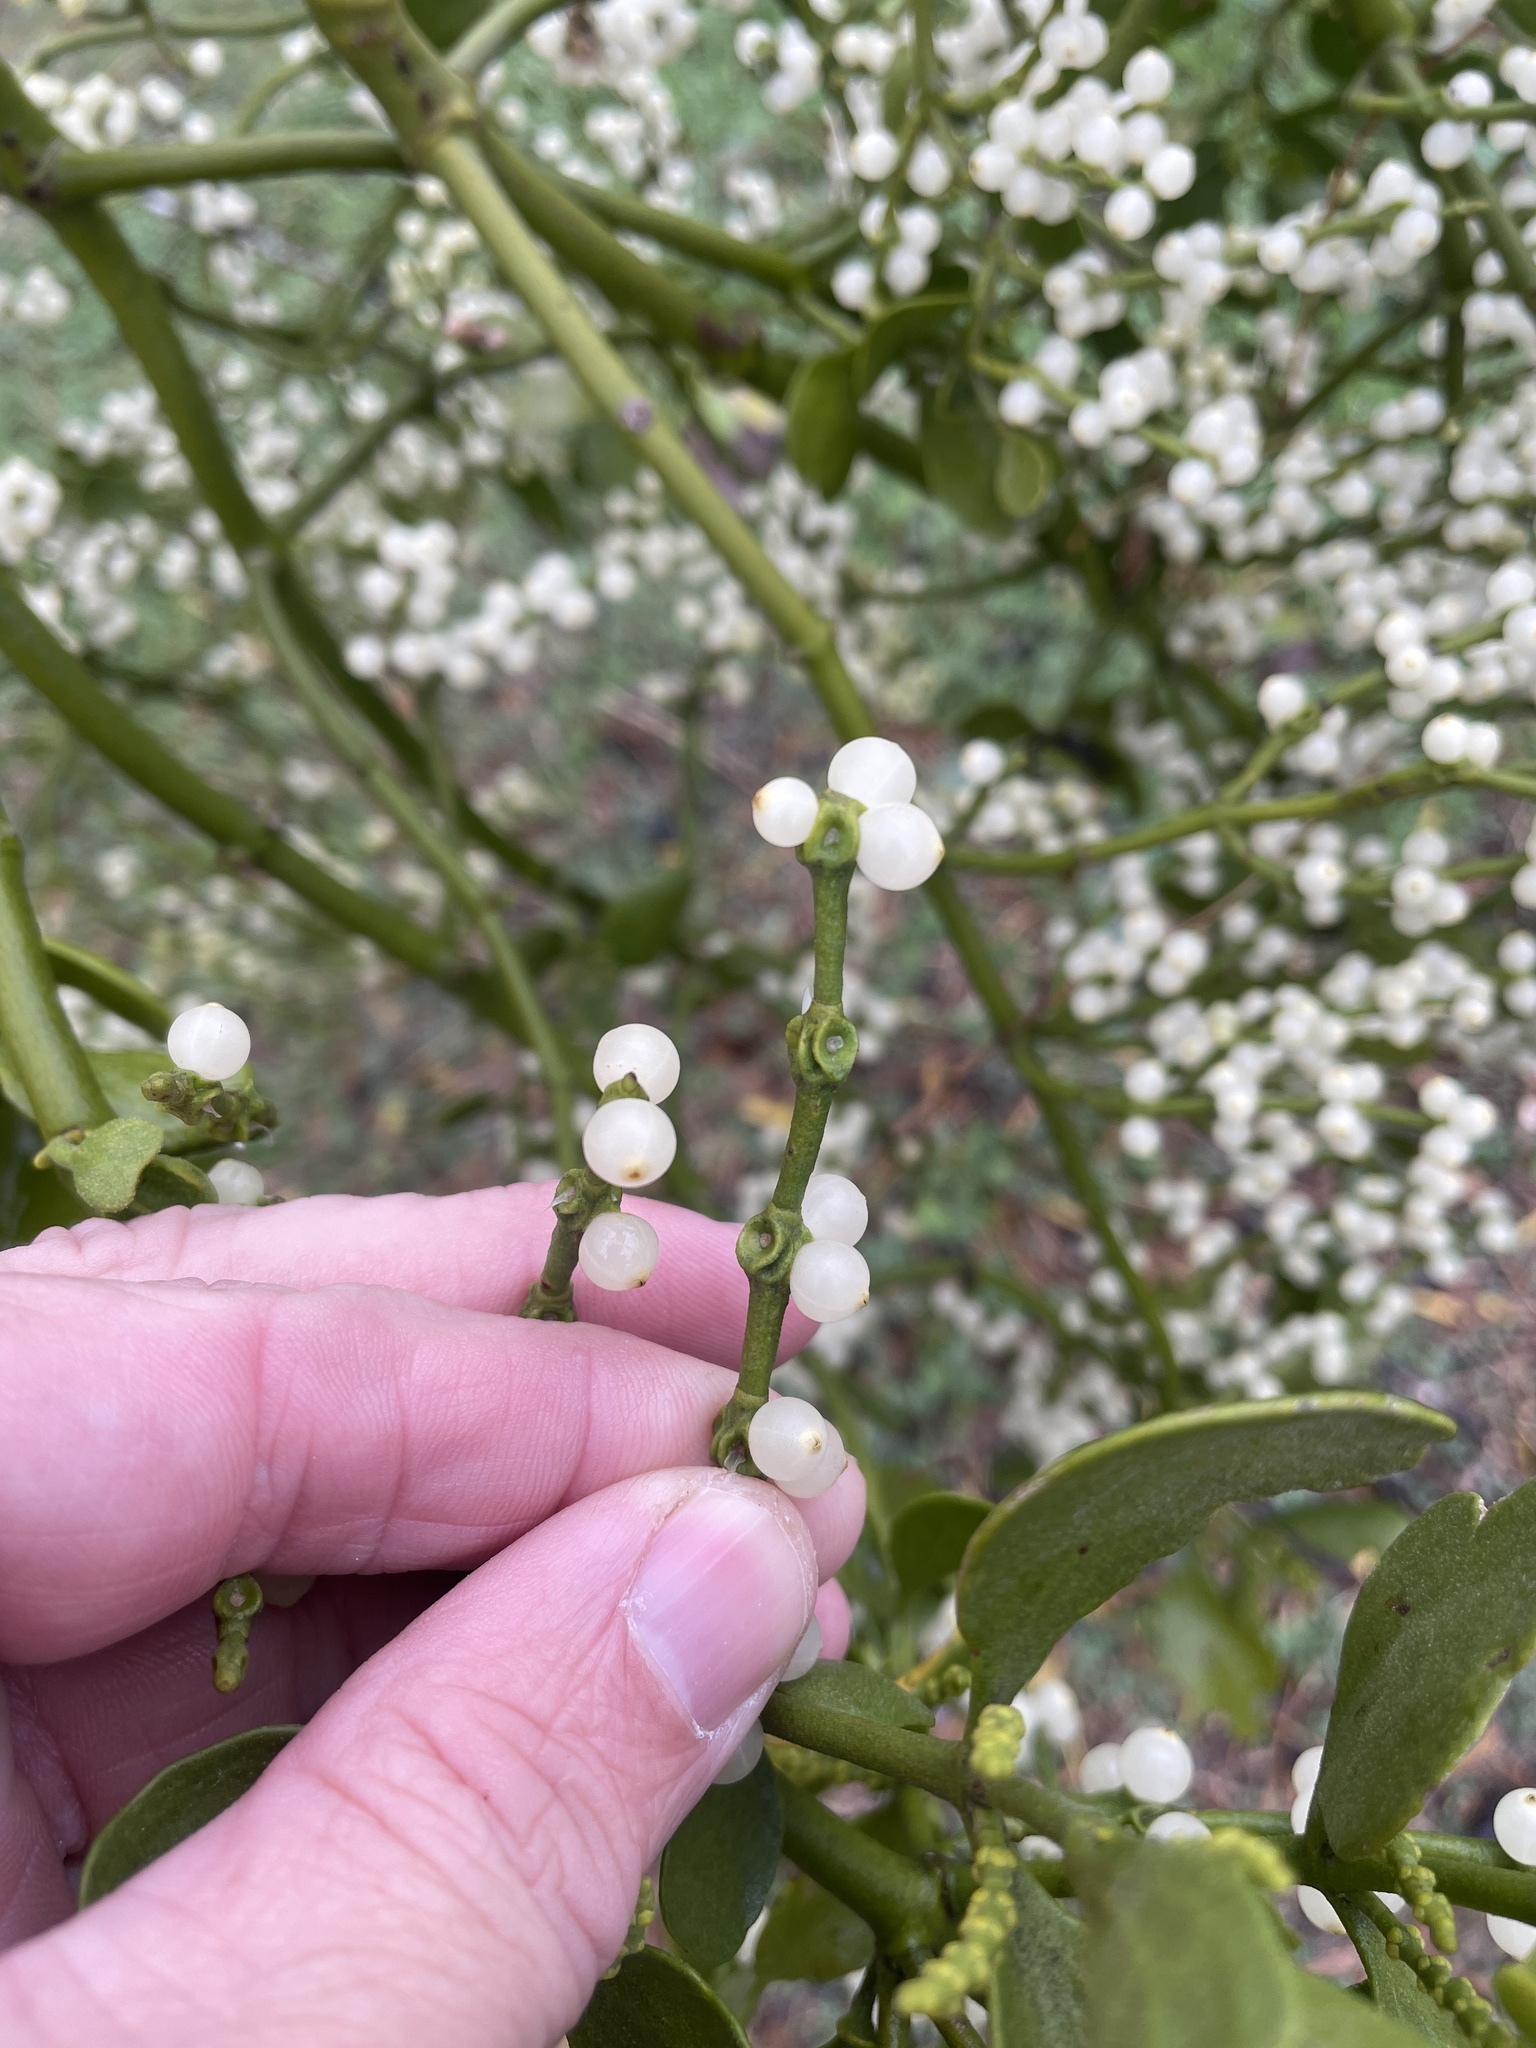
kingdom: Plantae
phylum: Tracheophyta
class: Magnoliopsida
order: Santalales
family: Viscaceae
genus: Phoradendron
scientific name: Phoradendron leucarpum
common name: Pacific mistletoe
